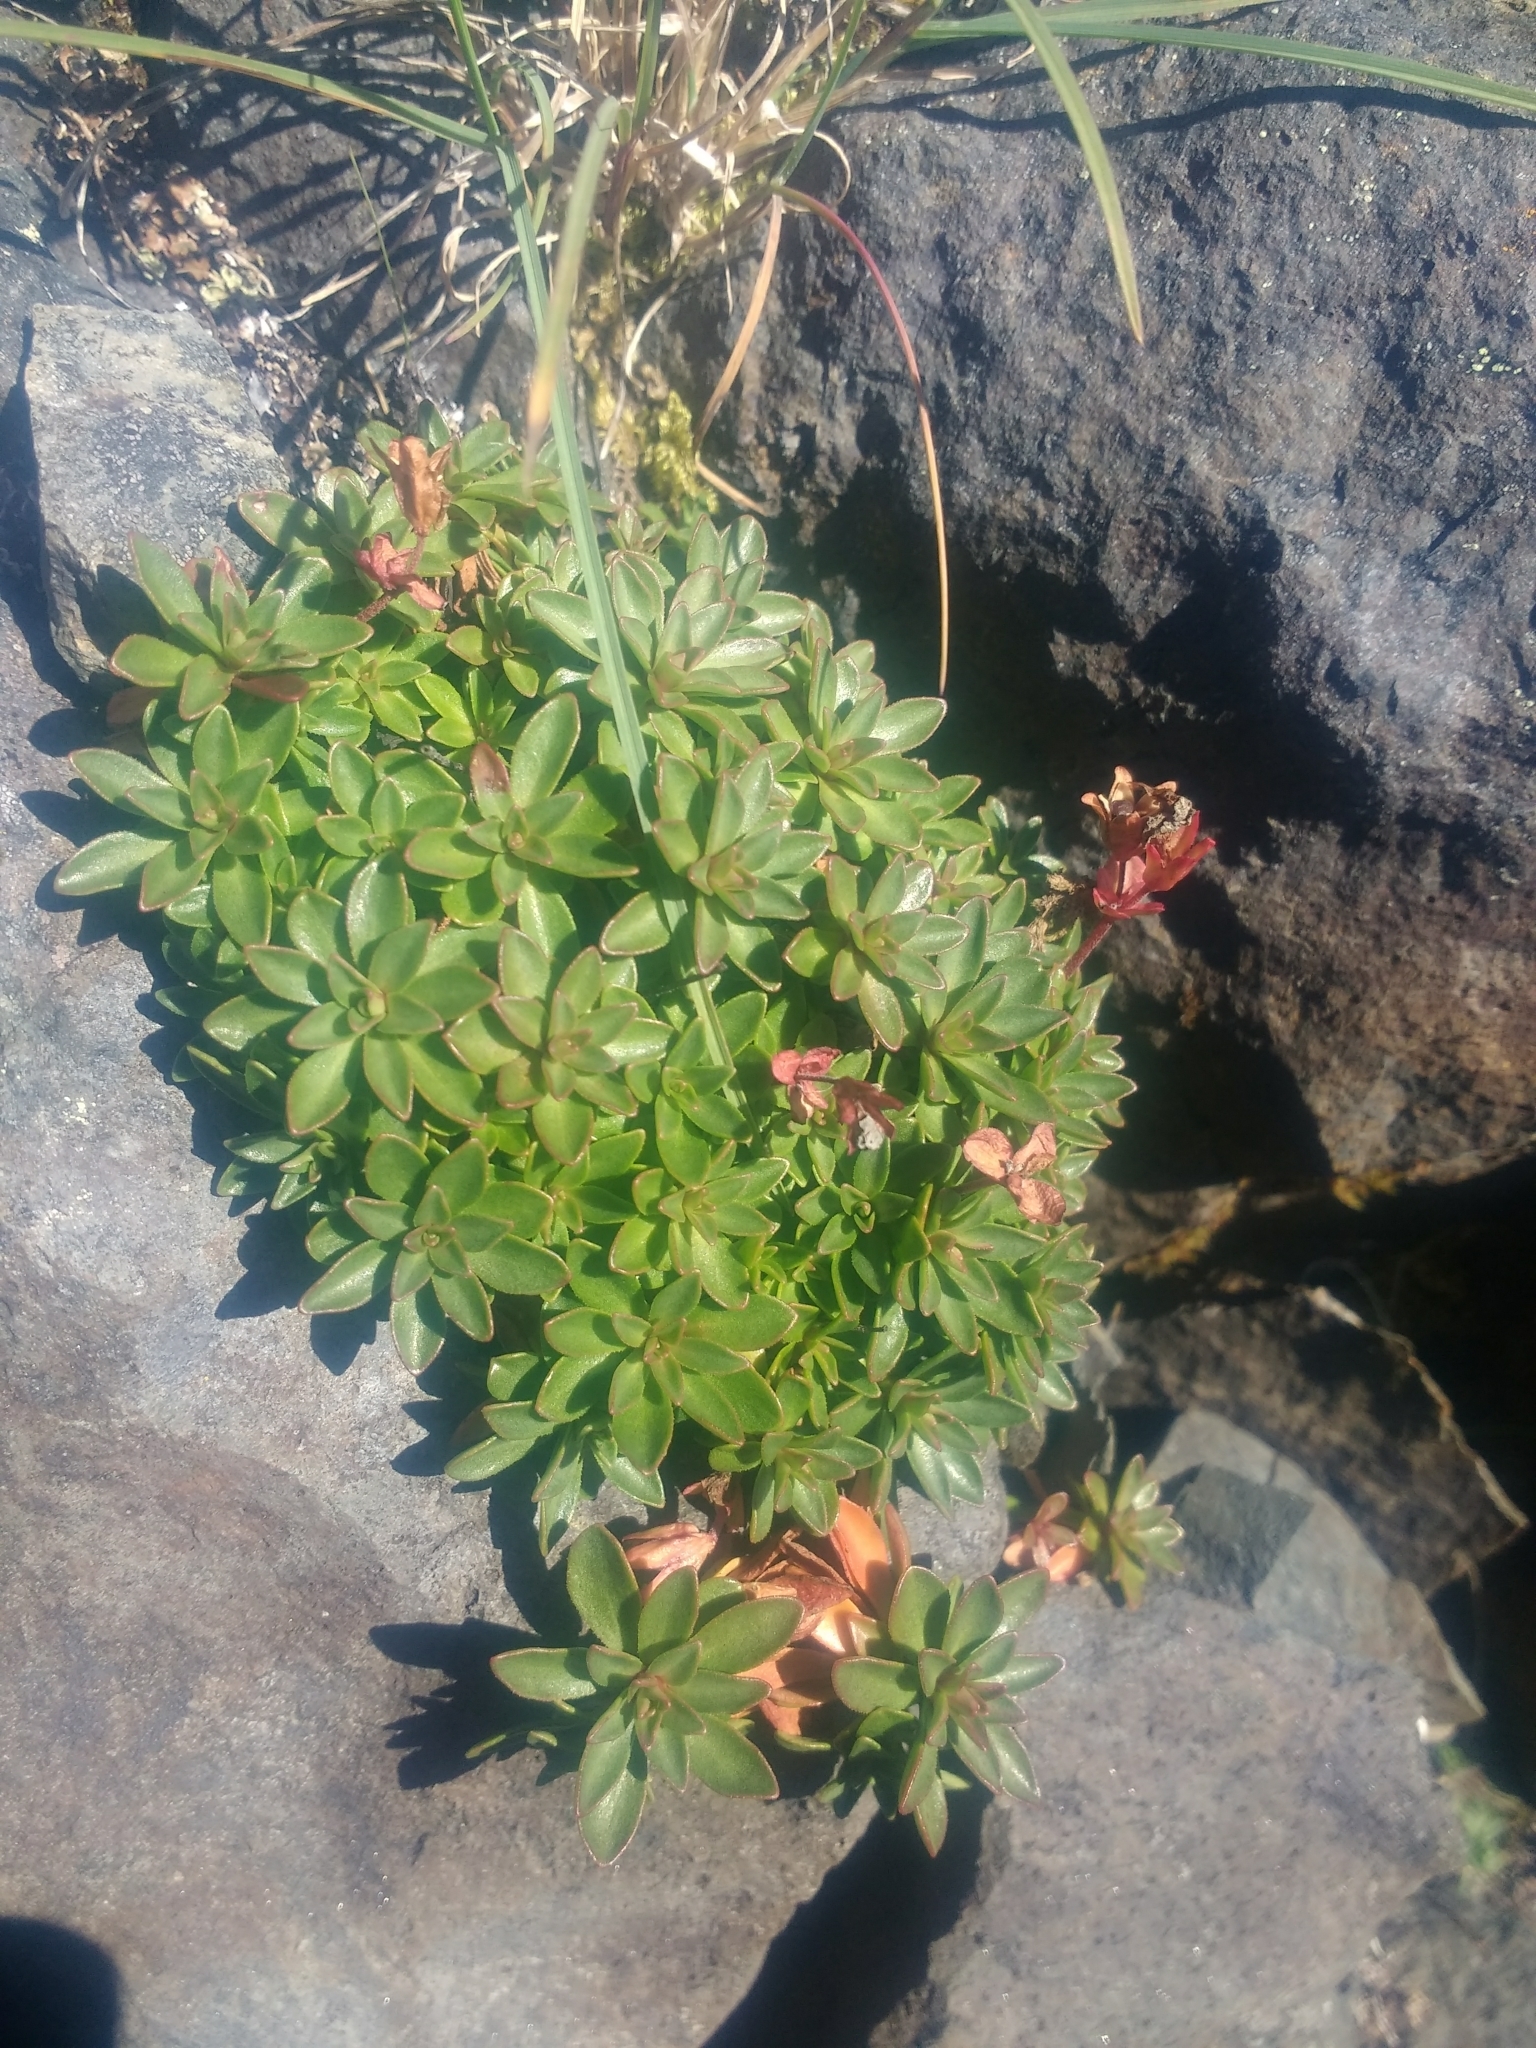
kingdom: Plantae
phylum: Tracheophyta
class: Magnoliopsida
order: Ericales
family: Primulaceae
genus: Androsace
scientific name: Androsace laevigata
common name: Cliff dwarf-primrose
